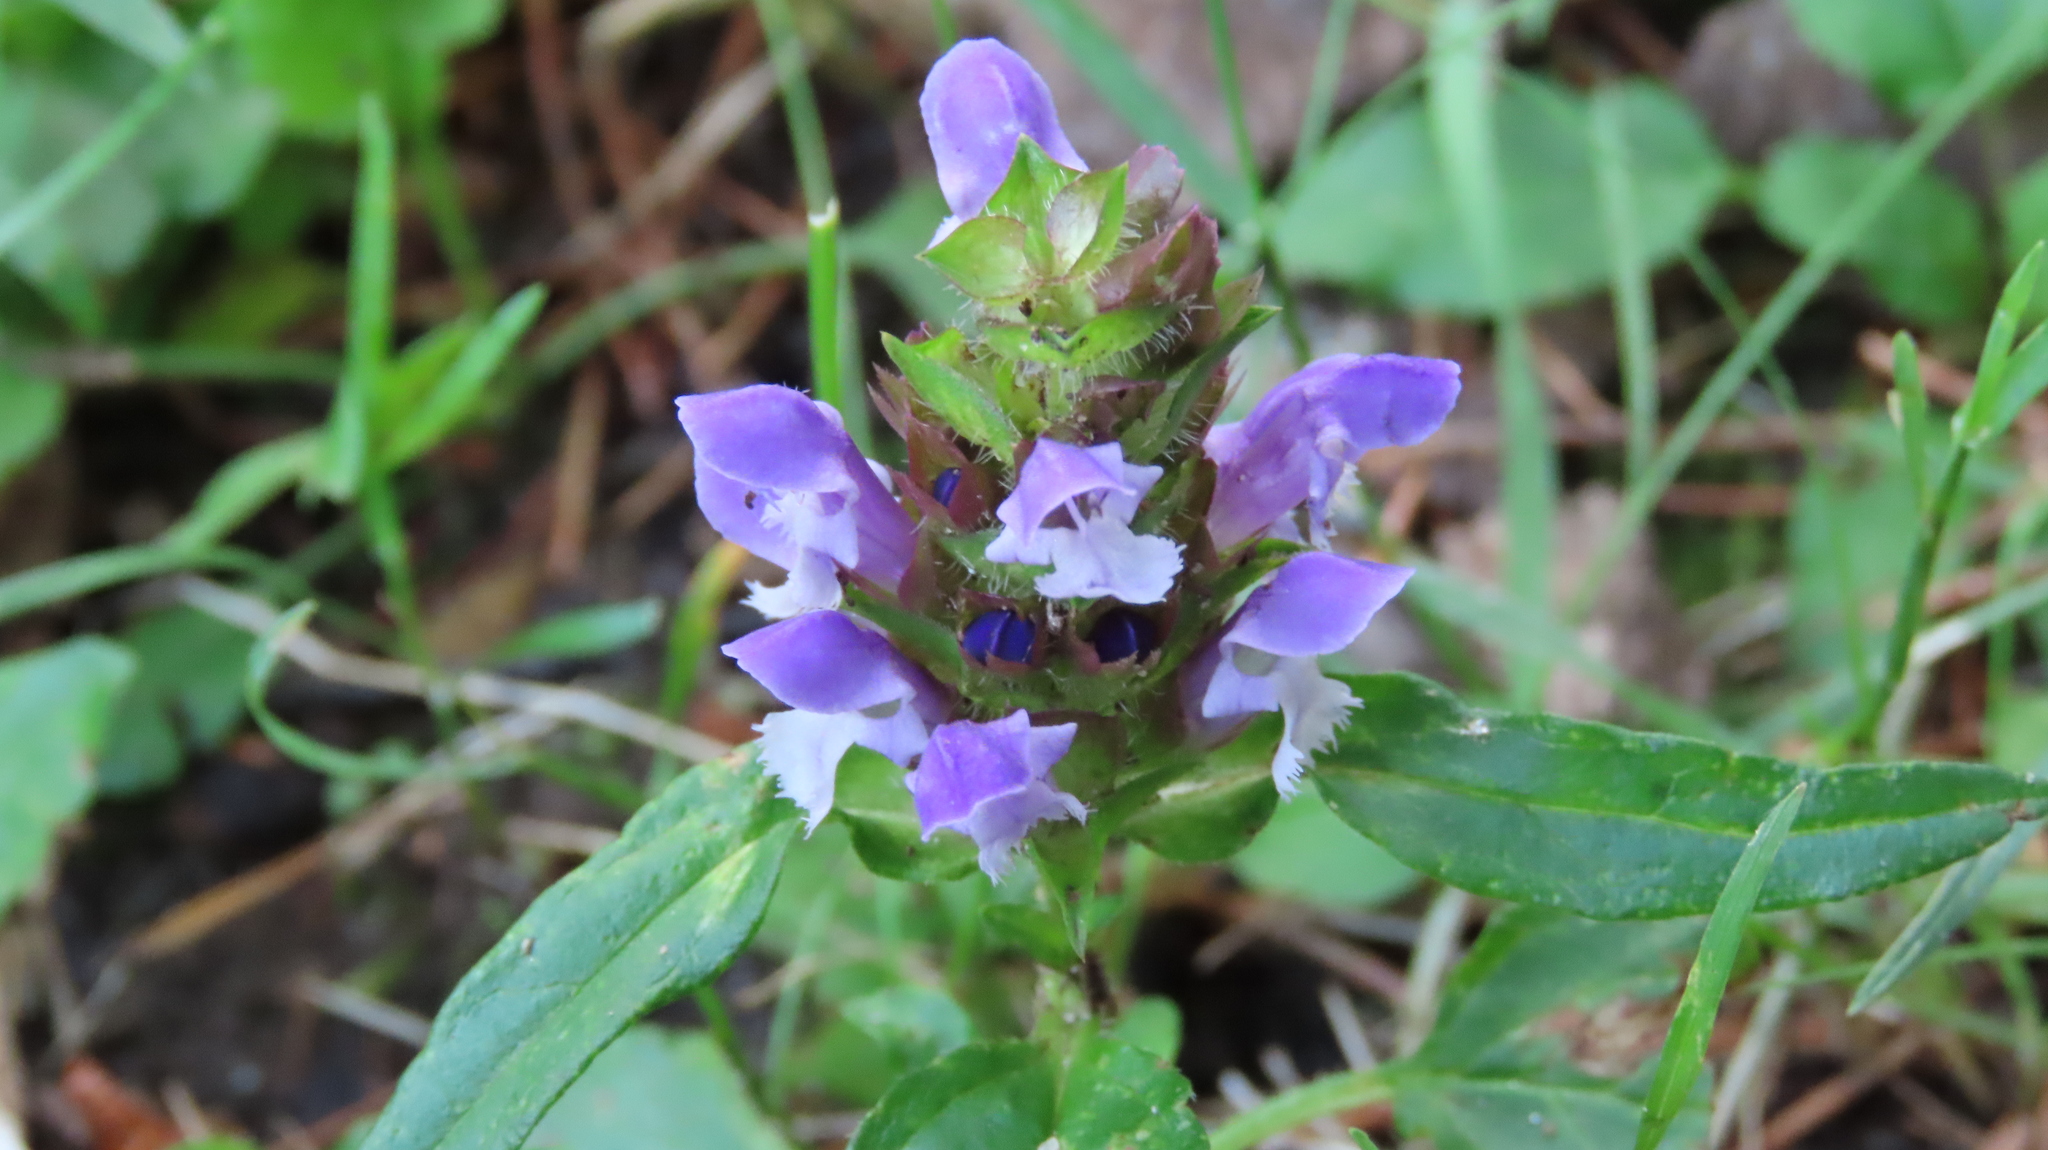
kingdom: Plantae
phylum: Tracheophyta
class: Magnoliopsida
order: Lamiales
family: Lamiaceae
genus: Prunella
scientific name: Prunella vulgaris
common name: Heal-all
